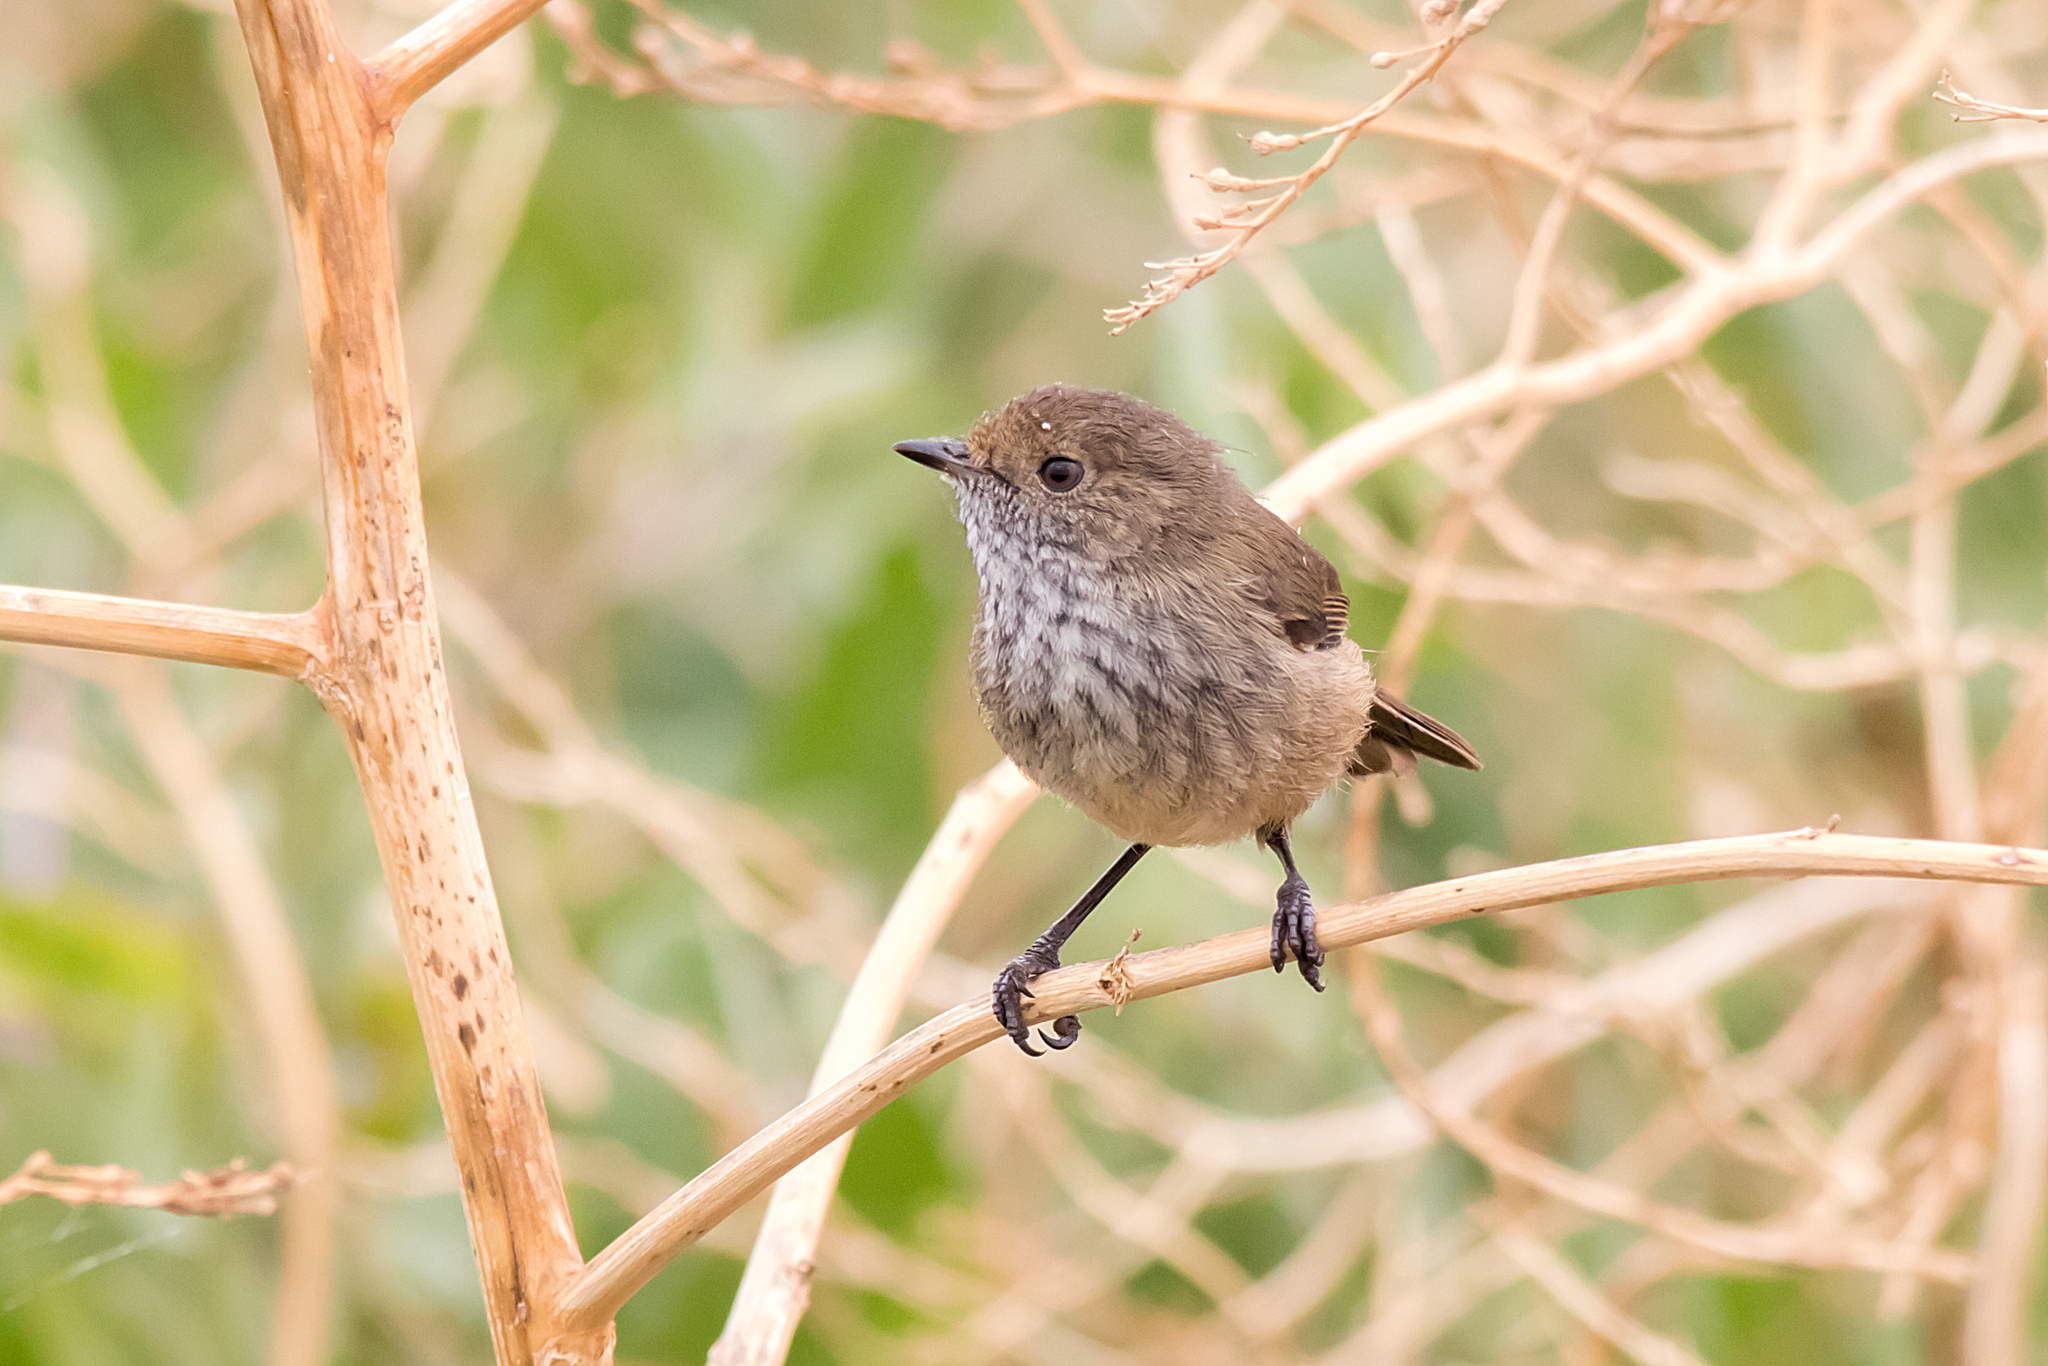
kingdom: Animalia
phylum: Chordata
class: Aves
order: Passeriformes
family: Acanthizidae
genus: Acanthiza
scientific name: Acanthiza pusilla
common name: Brown thornbill
